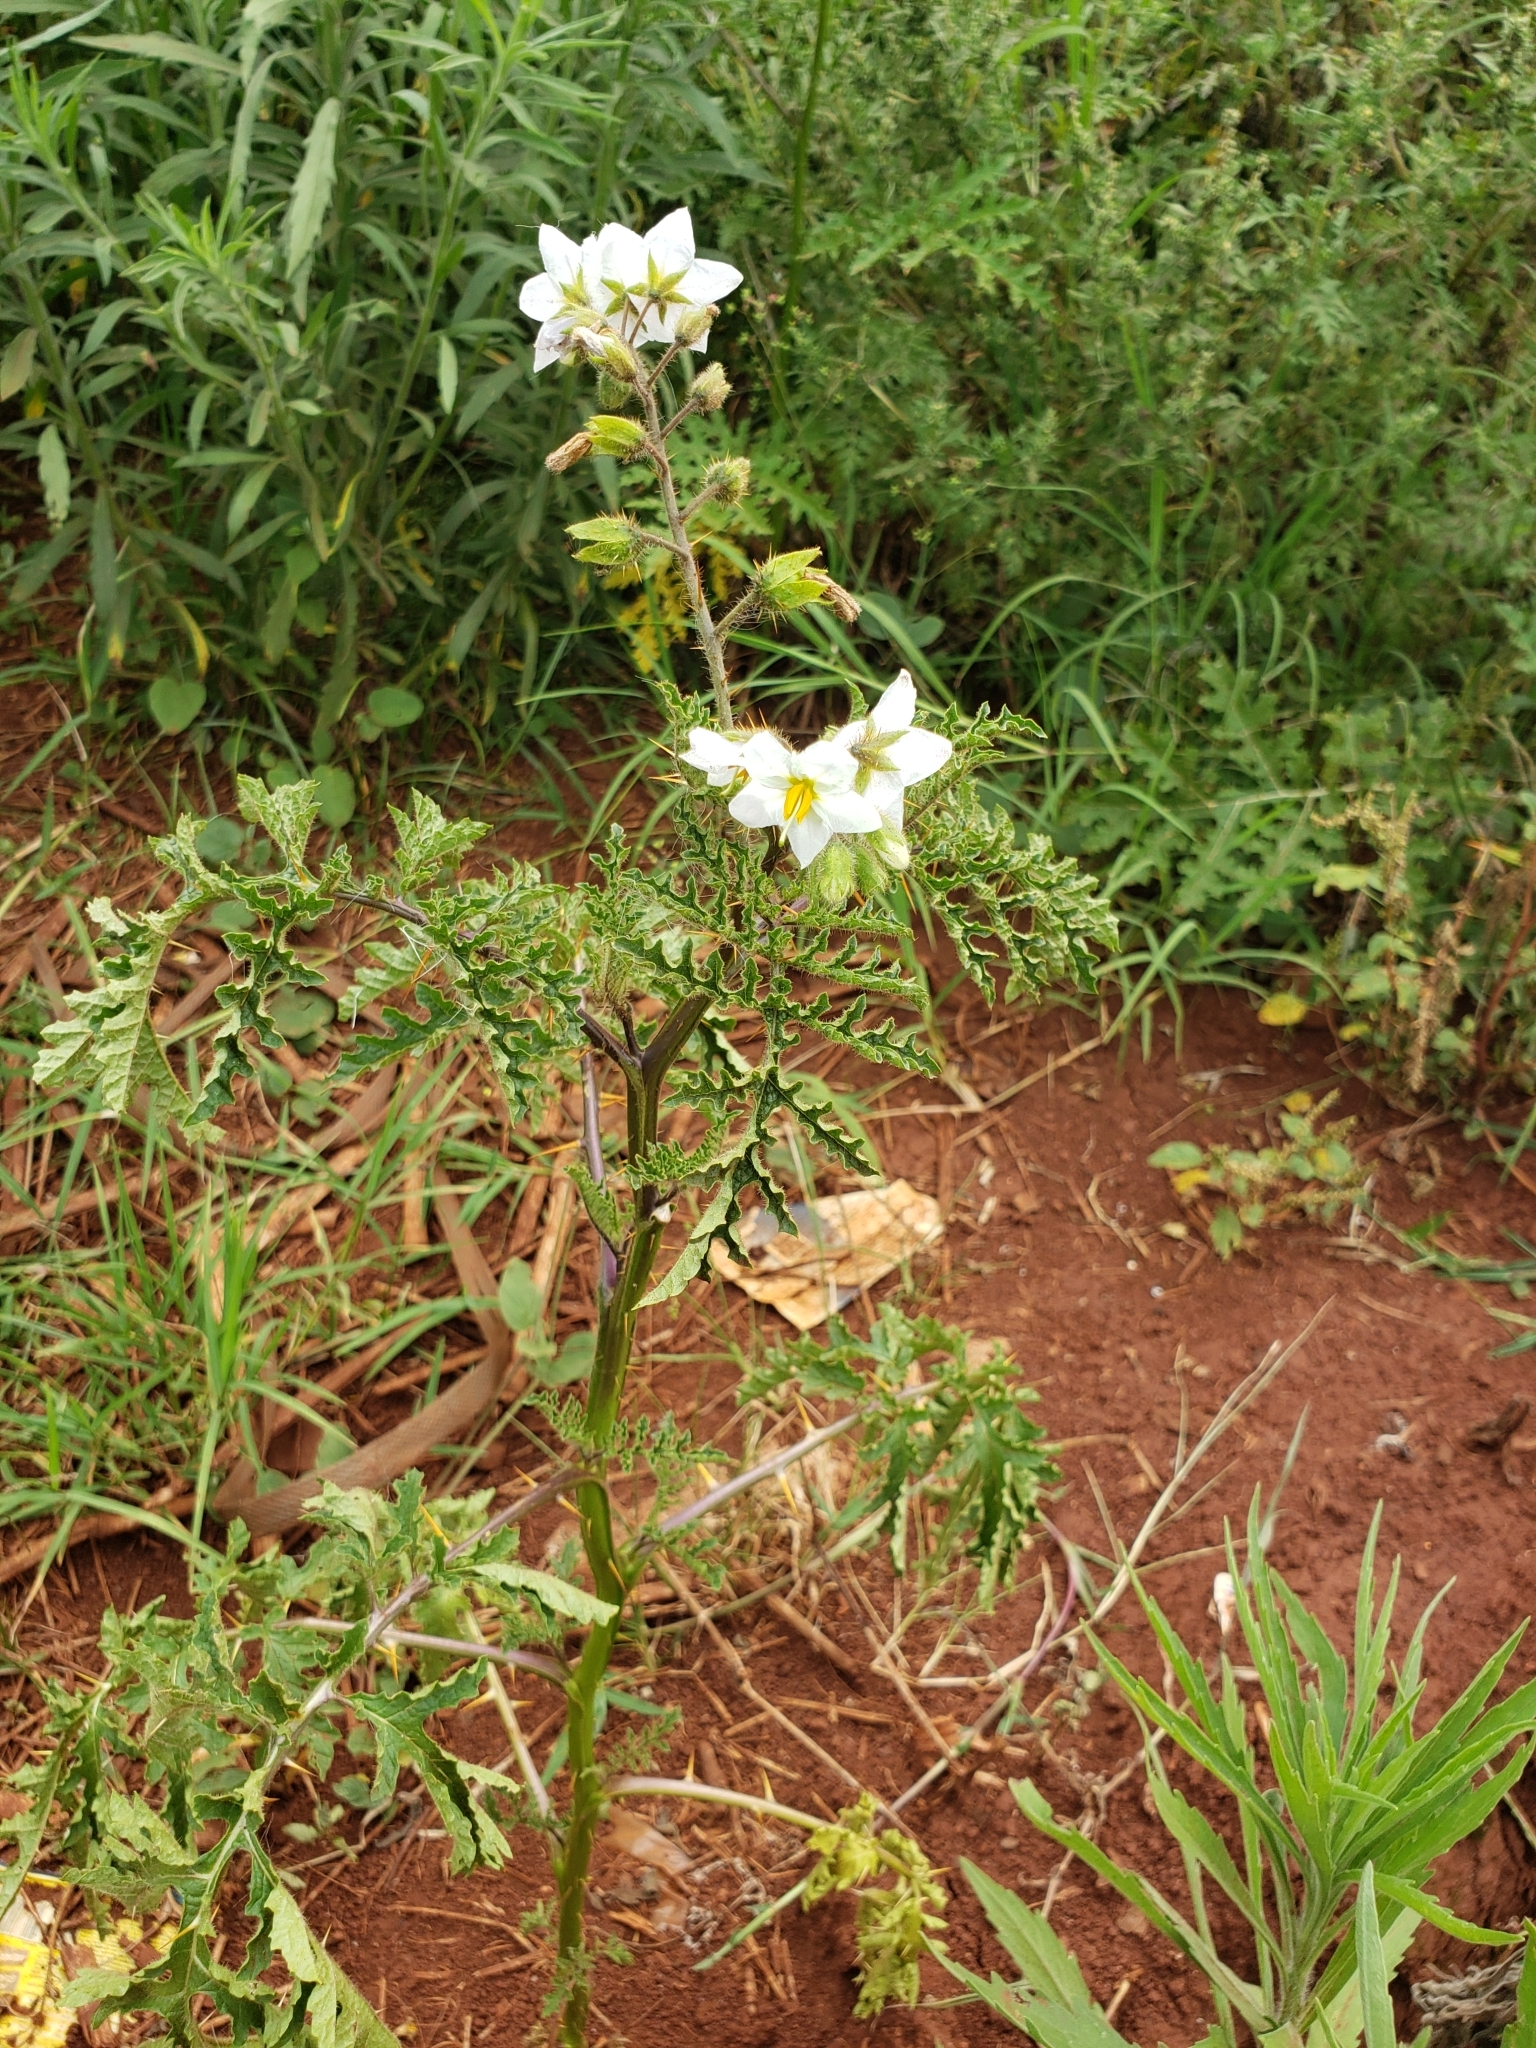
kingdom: Plantae
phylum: Tracheophyta
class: Magnoliopsida
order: Solanales
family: Solanaceae
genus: Solanum
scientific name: Solanum sisymbriifolium
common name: Red buffalo-bur
